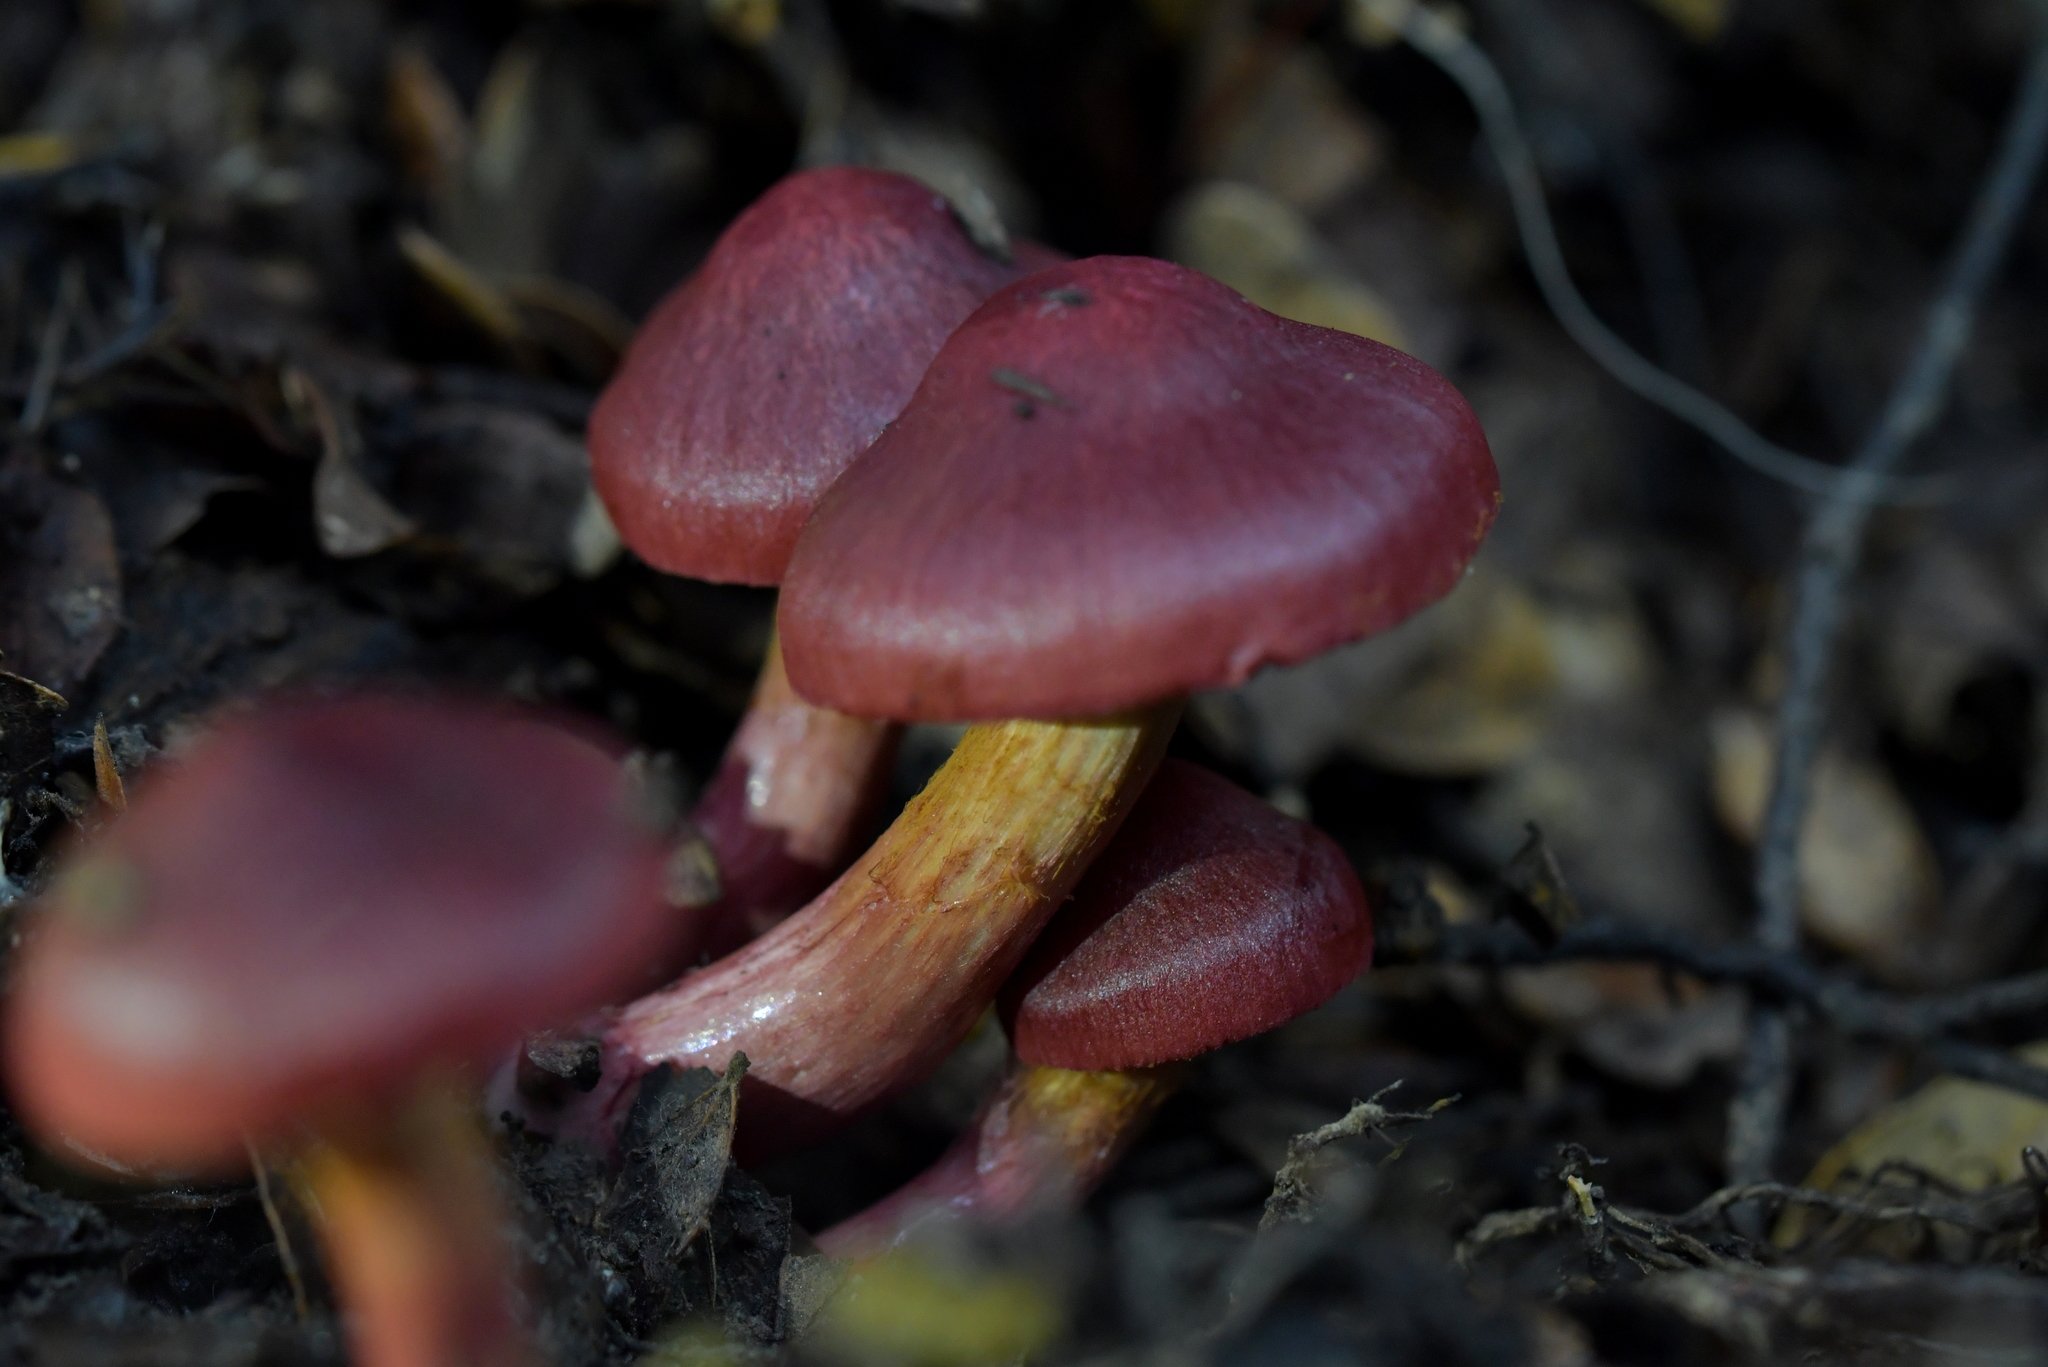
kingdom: Fungi
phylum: Basidiomycota
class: Agaricomycetes
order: Agaricales
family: Cortinariaceae
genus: Cortinarius
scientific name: Cortinarius cardinalis
